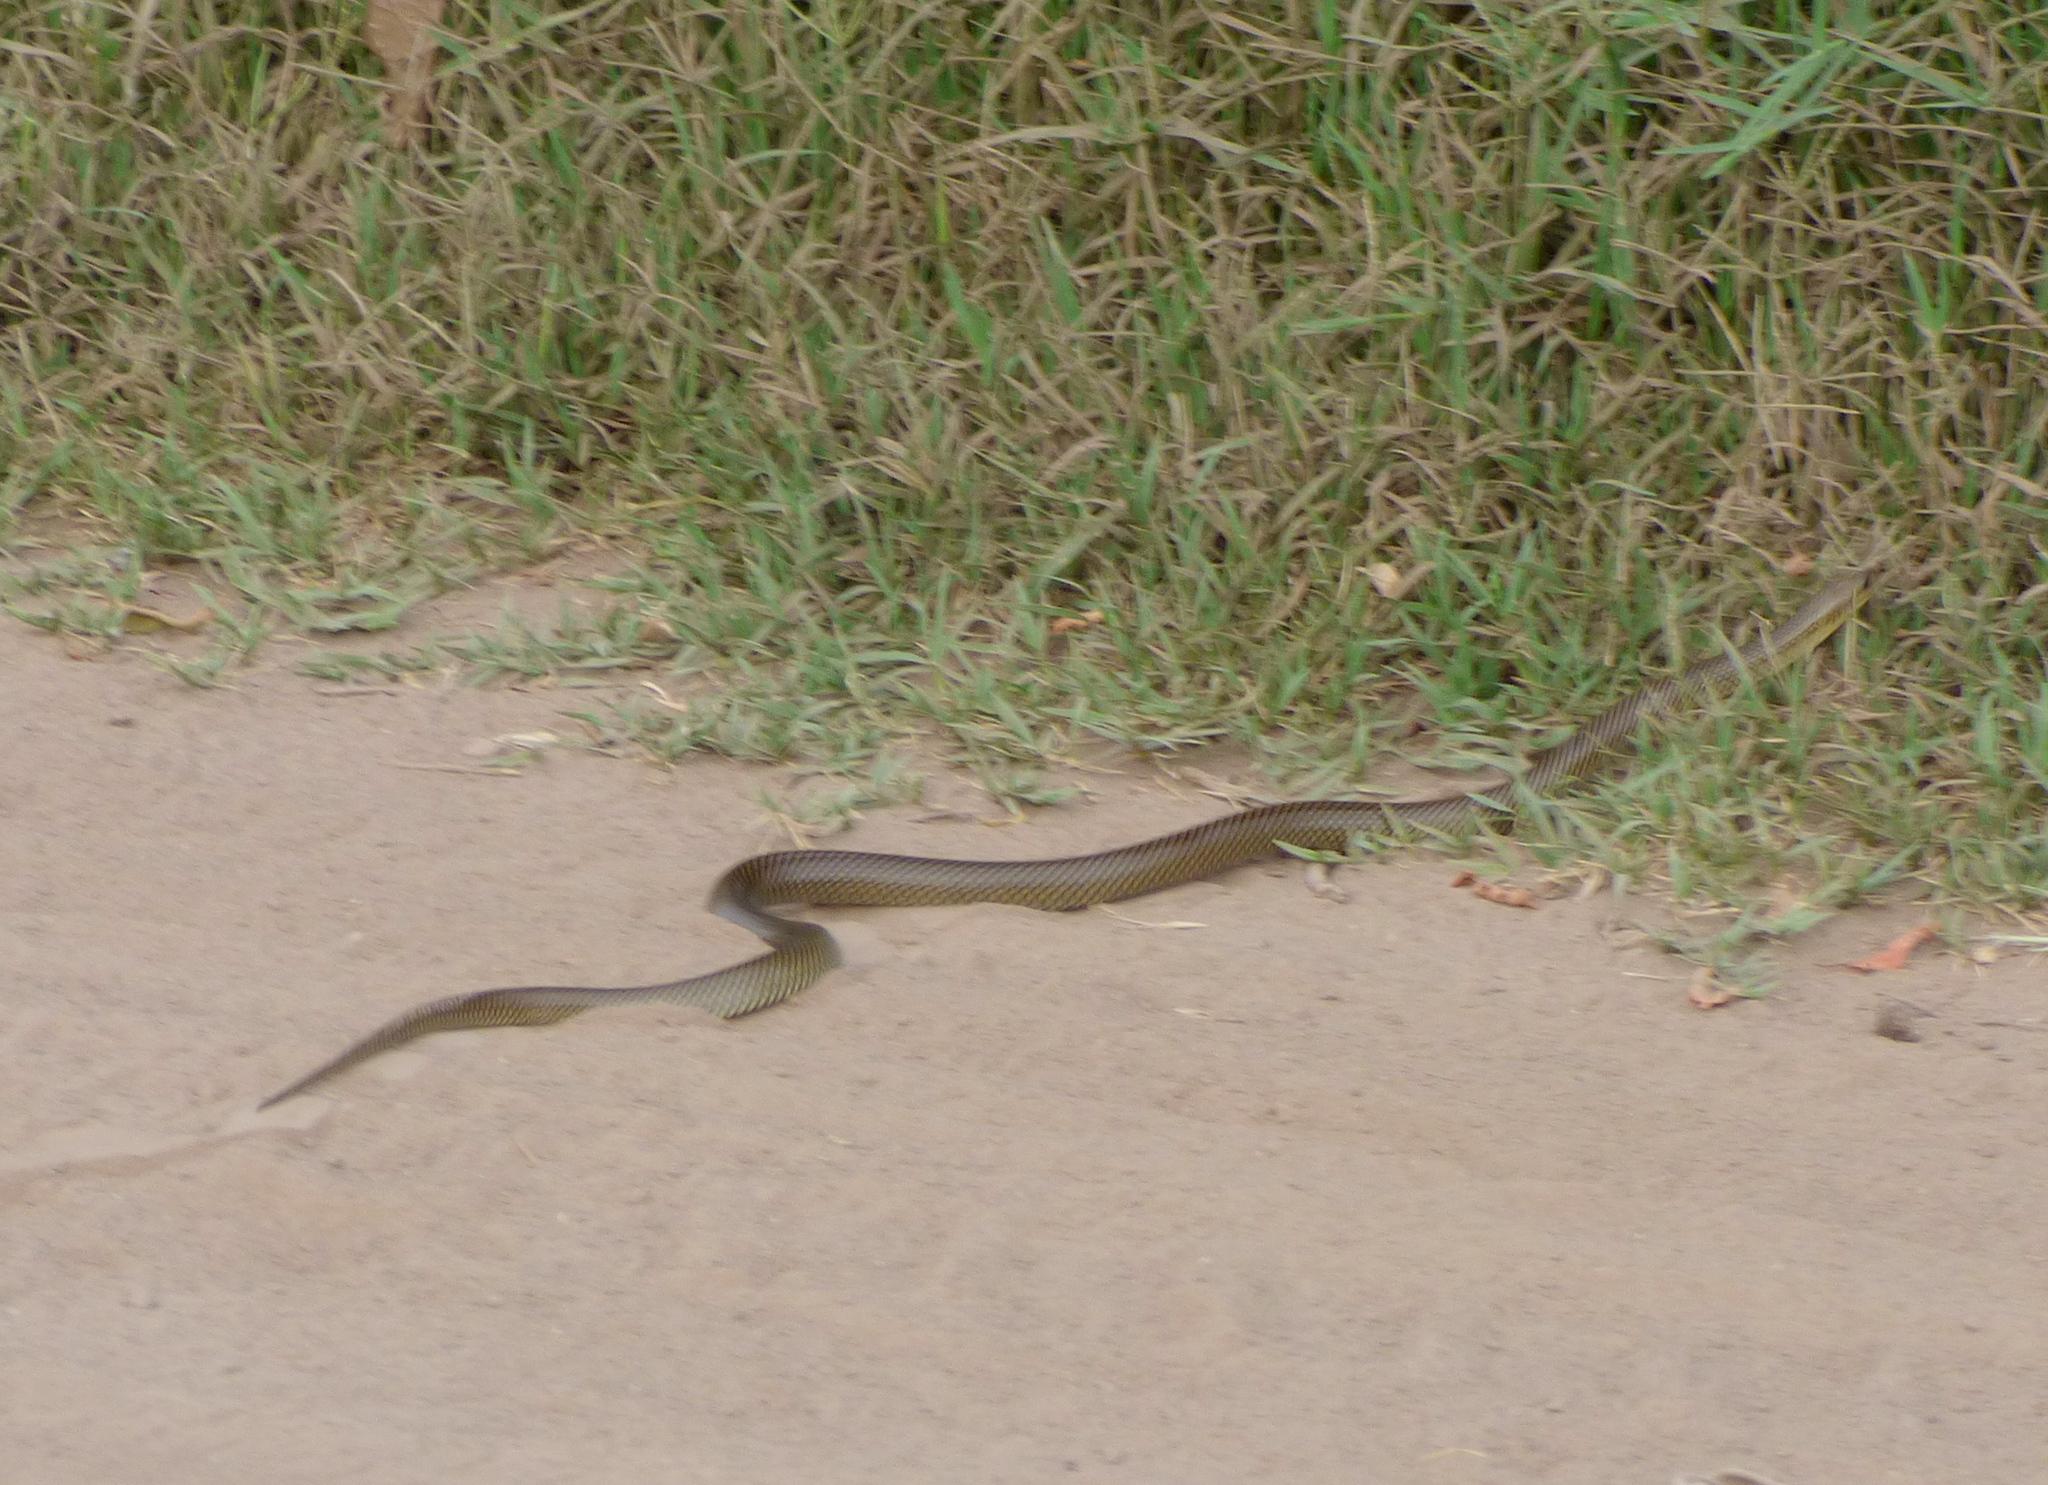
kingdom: Animalia
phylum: Chordata
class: Squamata
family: Colubridae
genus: Philodryas
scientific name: Philodryas patagoniensis
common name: Patagonia green racer
